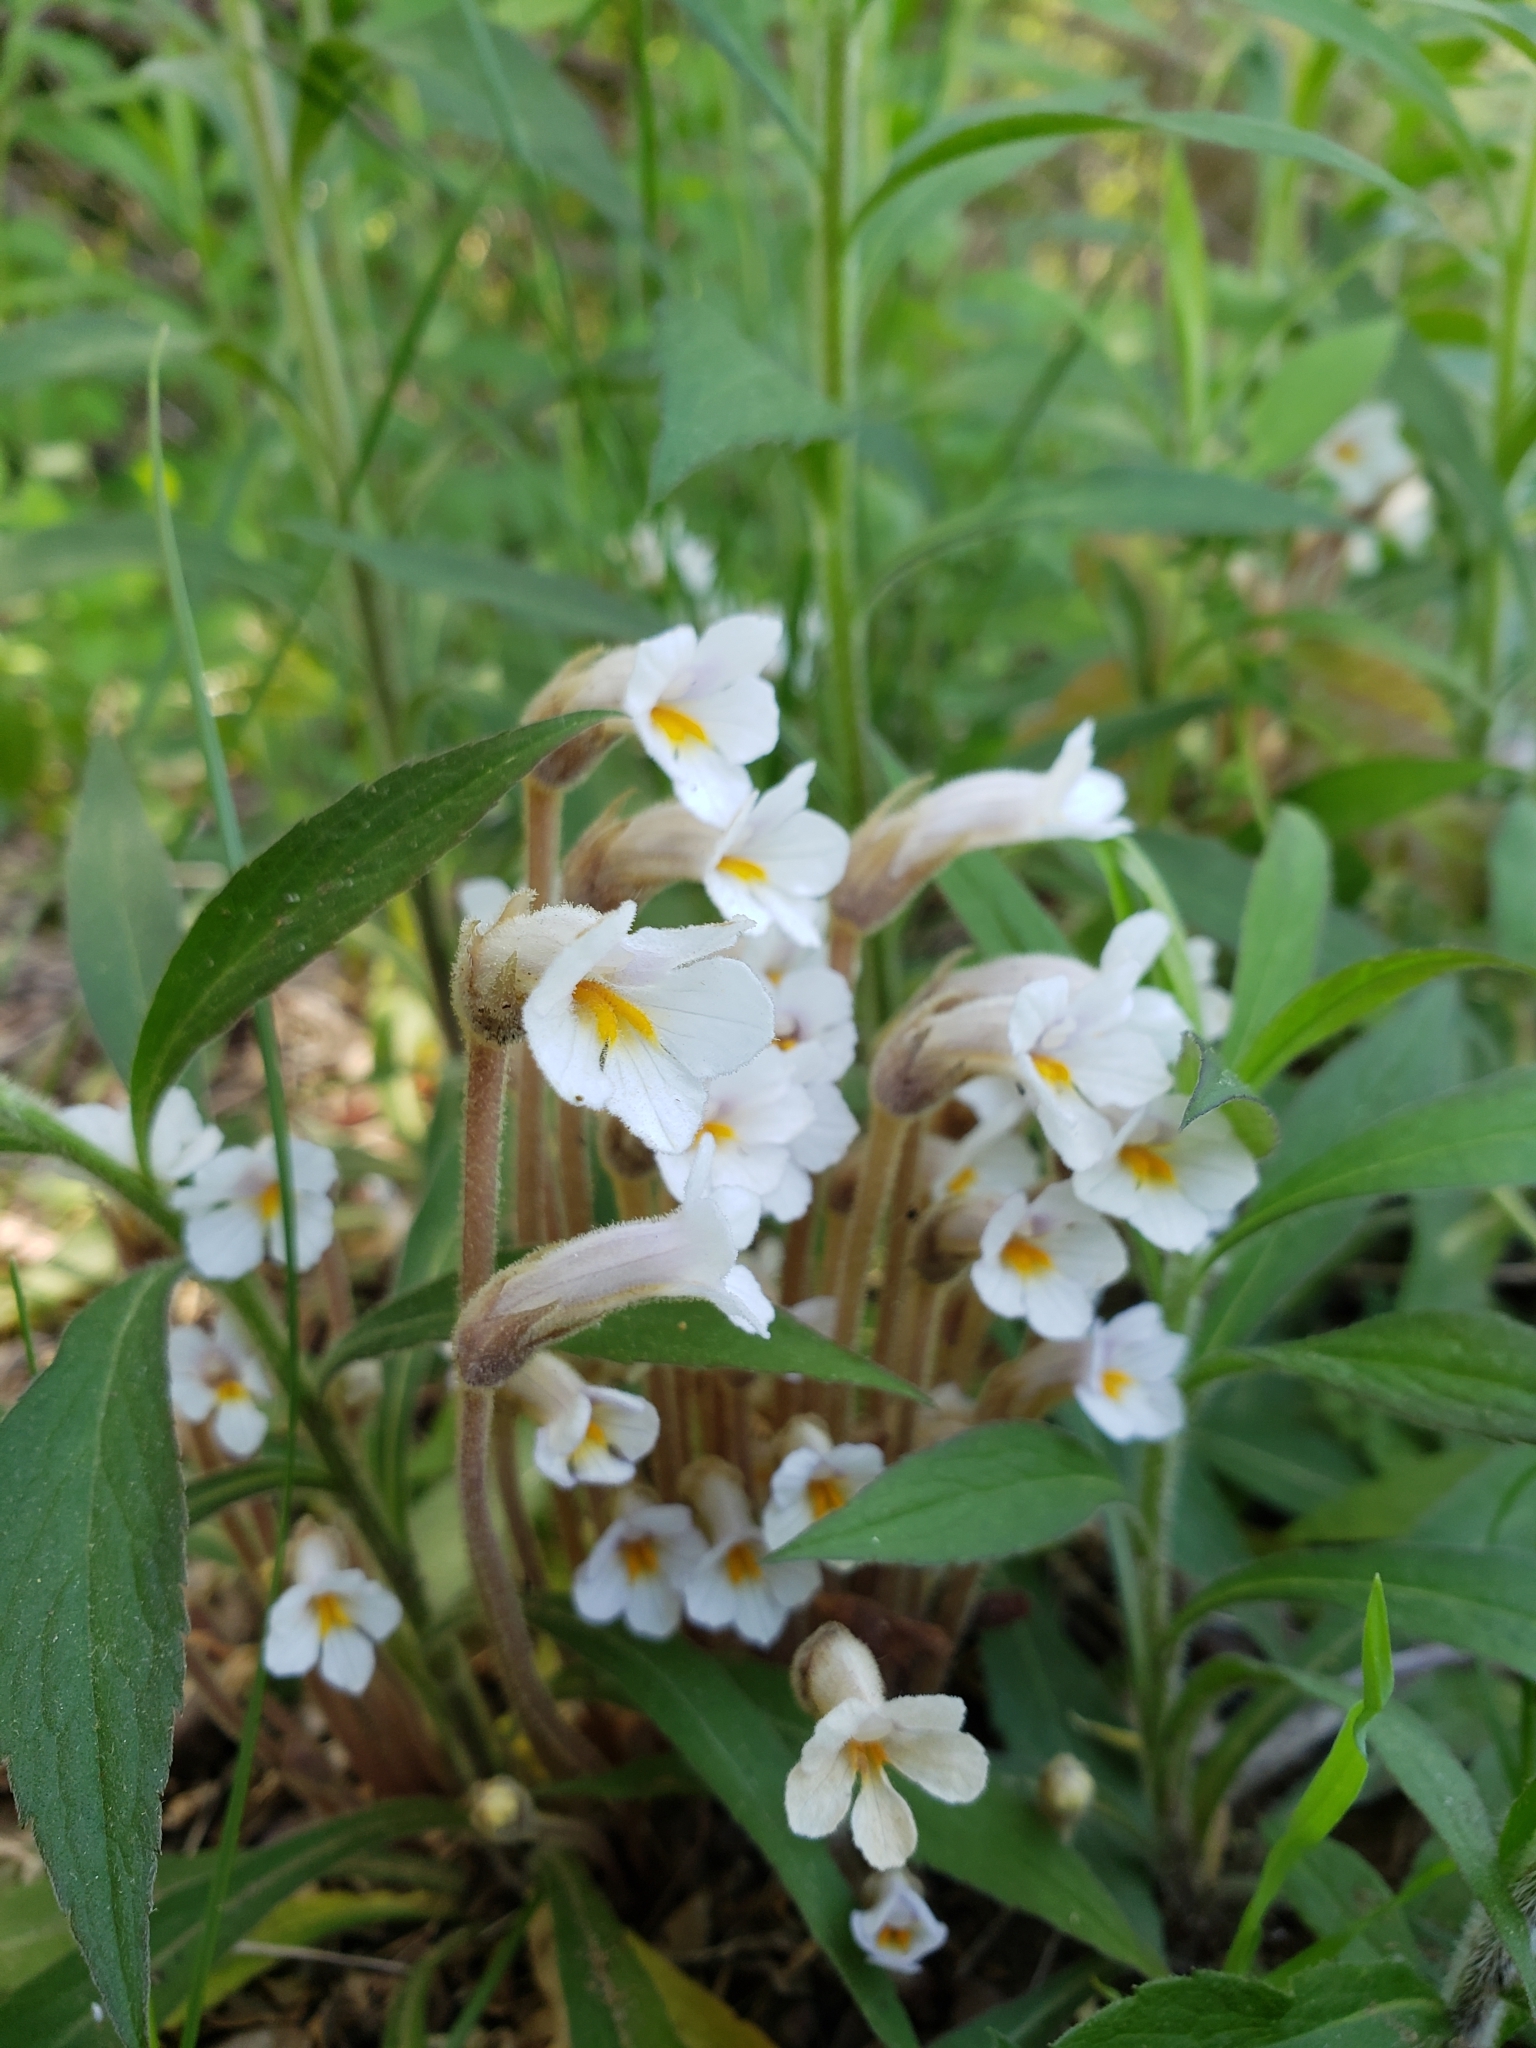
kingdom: Plantae
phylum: Tracheophyta
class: Magnoliopsida
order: Lamiales
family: Orobanchaceae
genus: Aphyllon
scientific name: Aphyllon uniflorum
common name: One-flowered broomrape
